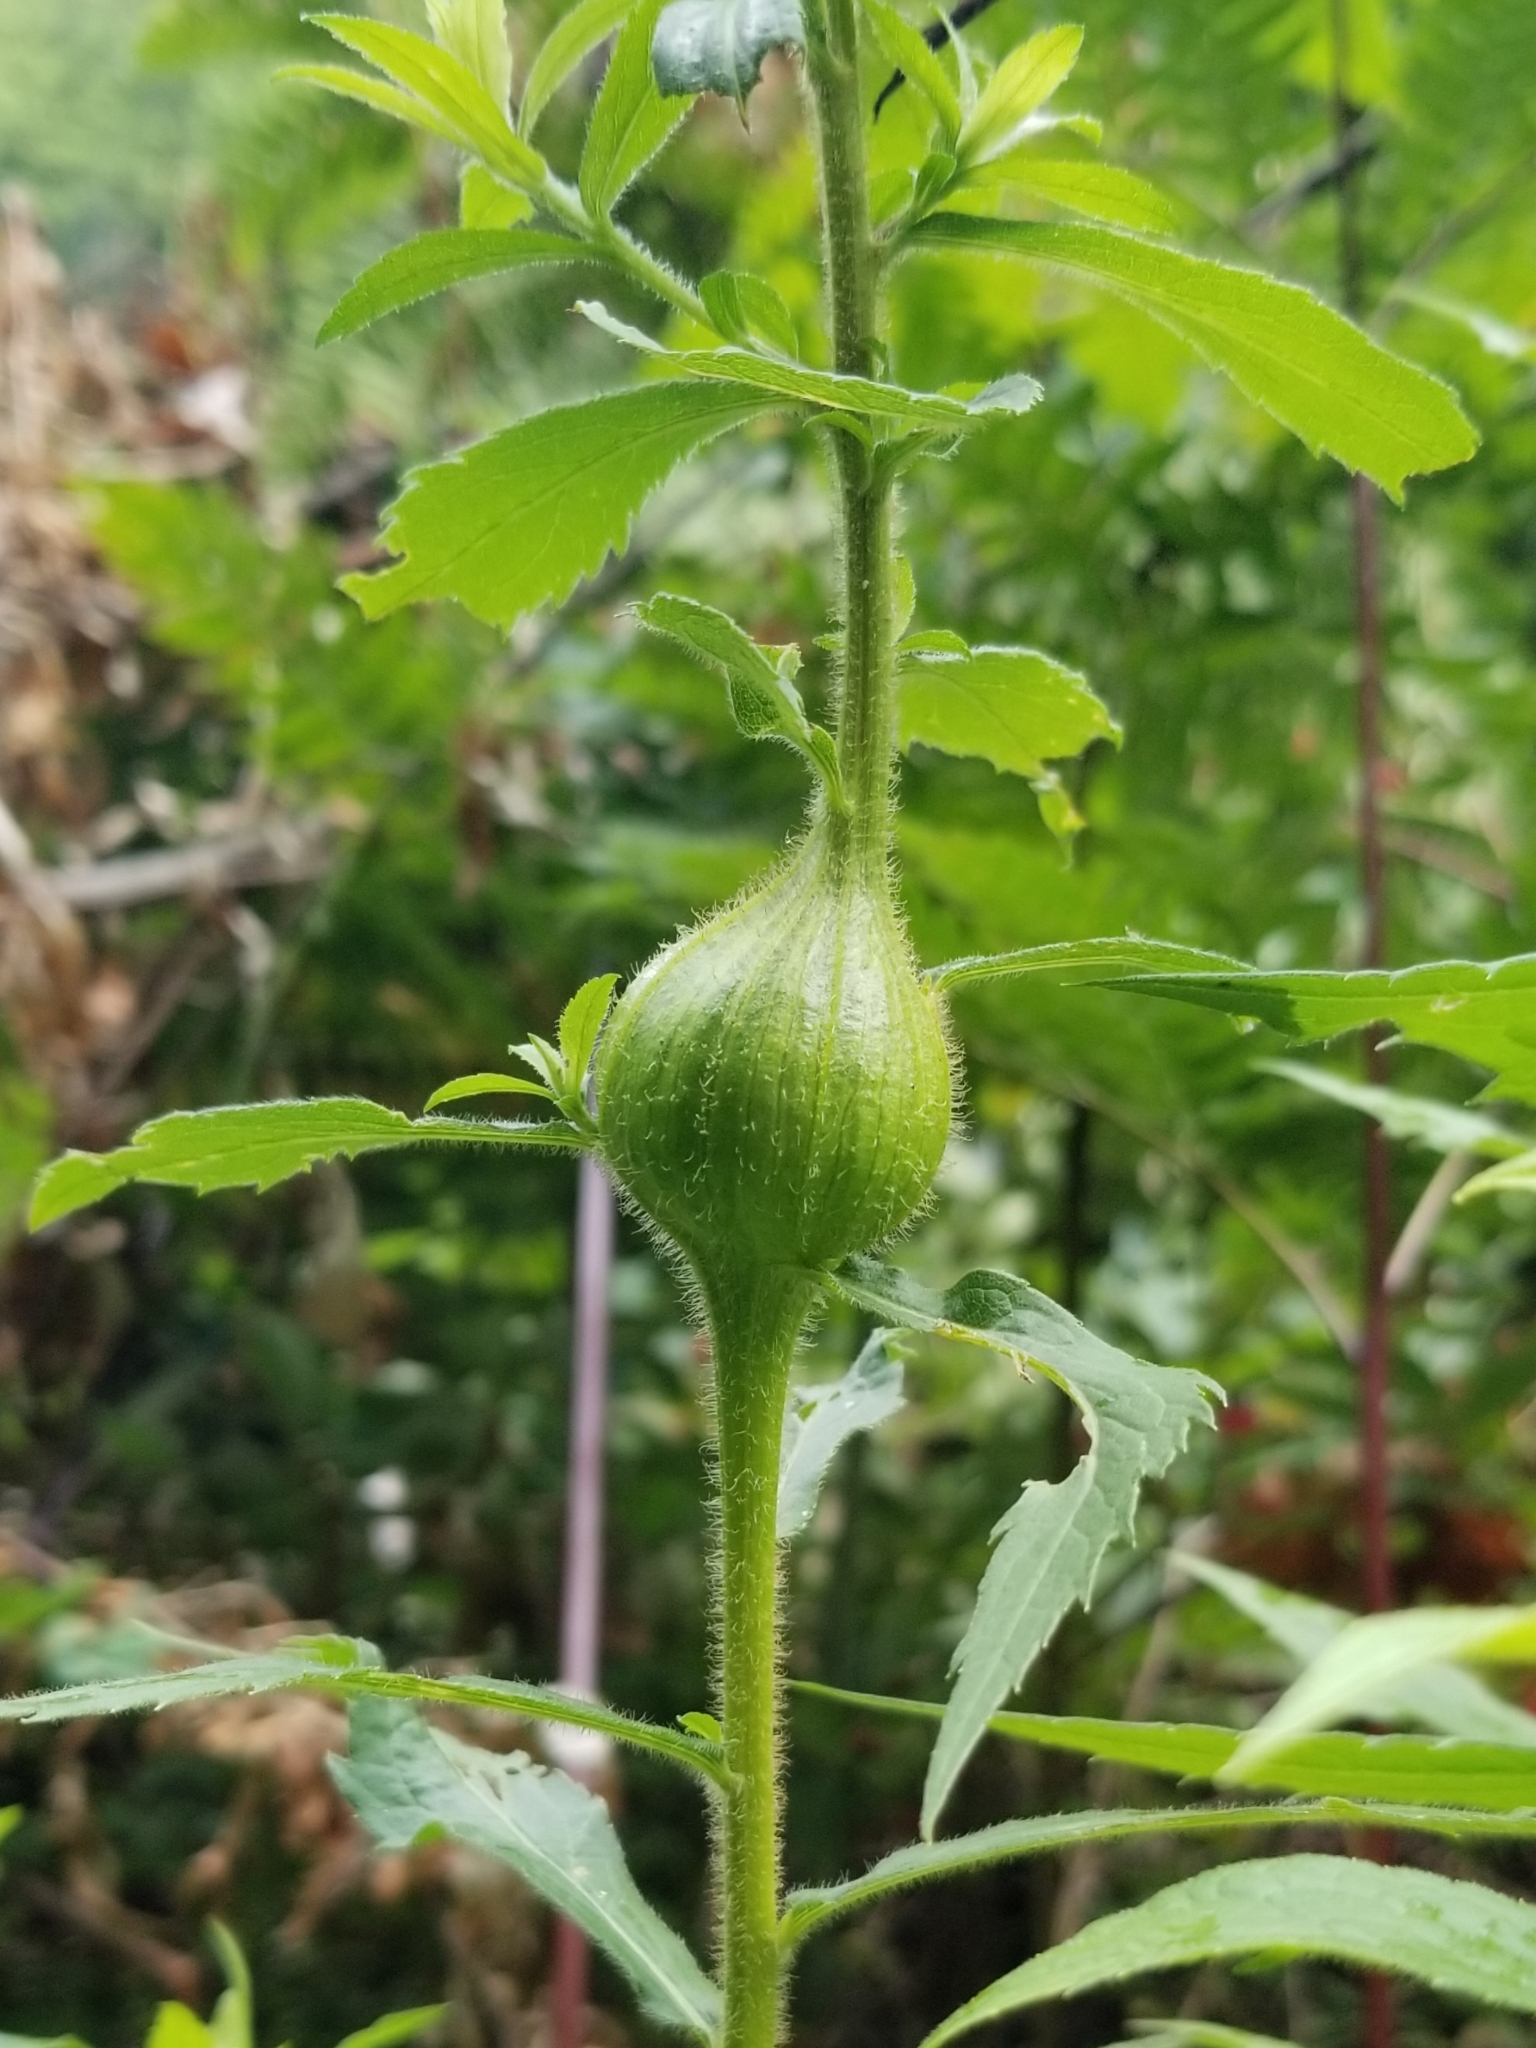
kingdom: Animalia
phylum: Arthropoda
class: Insecta
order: Diptera
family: Tephritidae
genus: Eurosta
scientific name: Eurosta solidaginis
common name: Goldenrod gall fly
